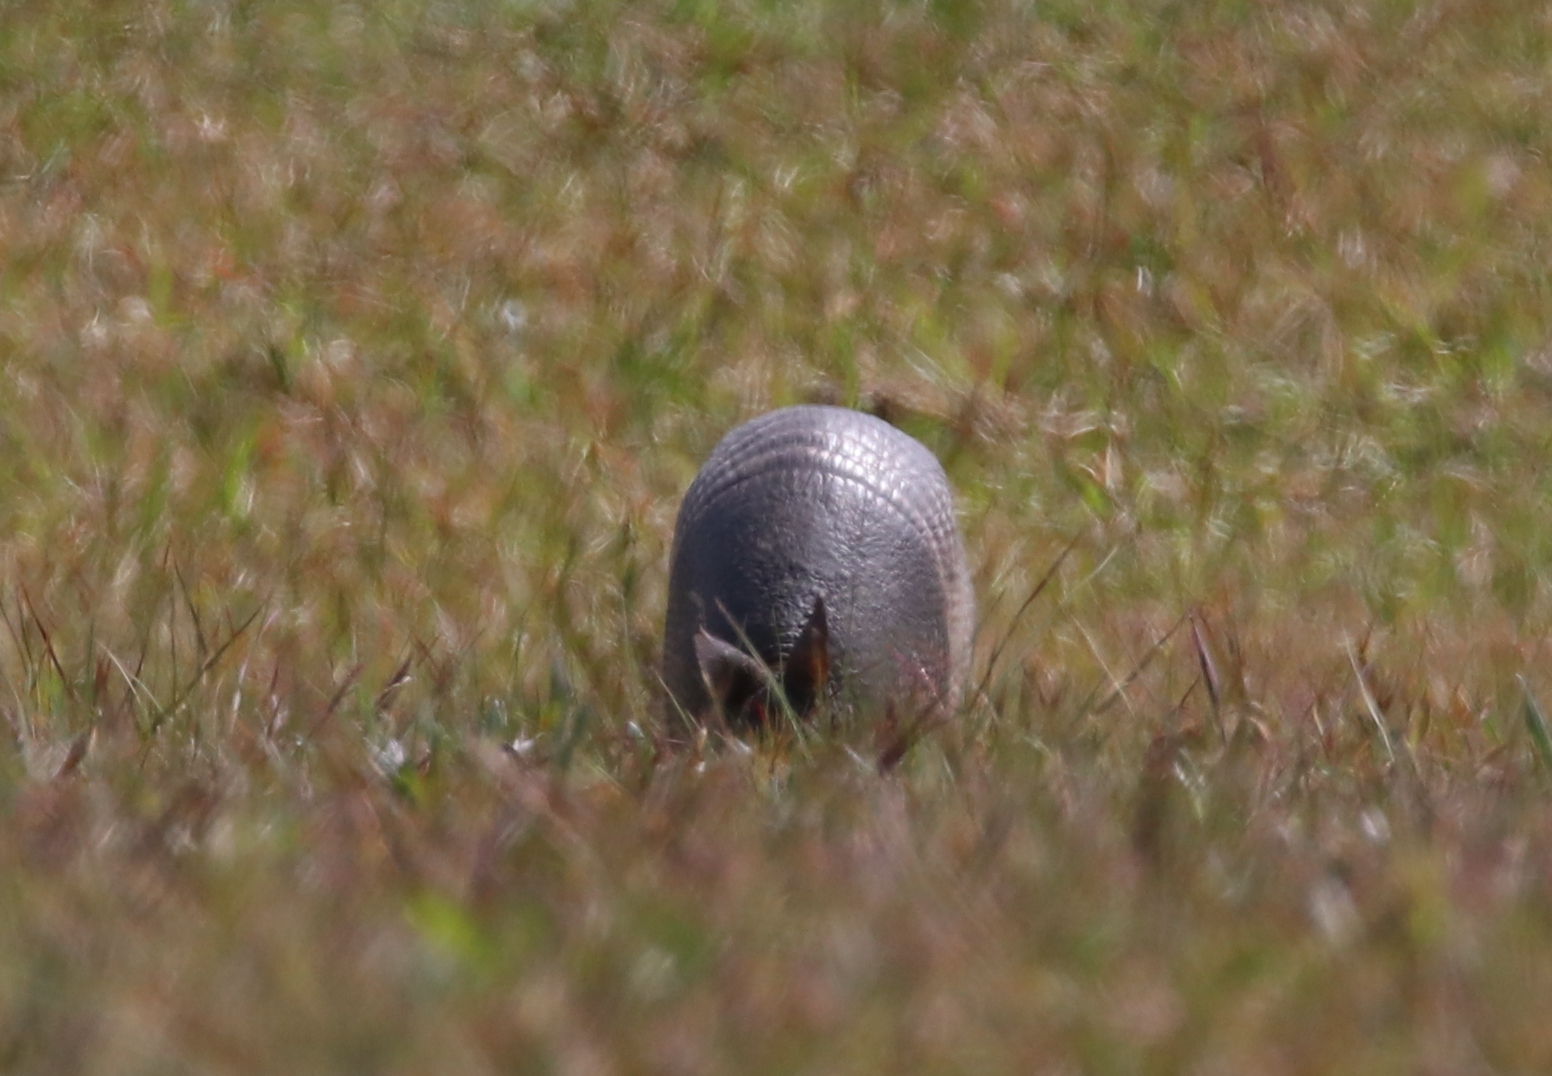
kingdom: Animalia
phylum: Chordata
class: Mammalia
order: Cingulata
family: Dasypodidae
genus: Dasypus
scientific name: Dasypus novemcinctus
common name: Nine-banded armadillo
